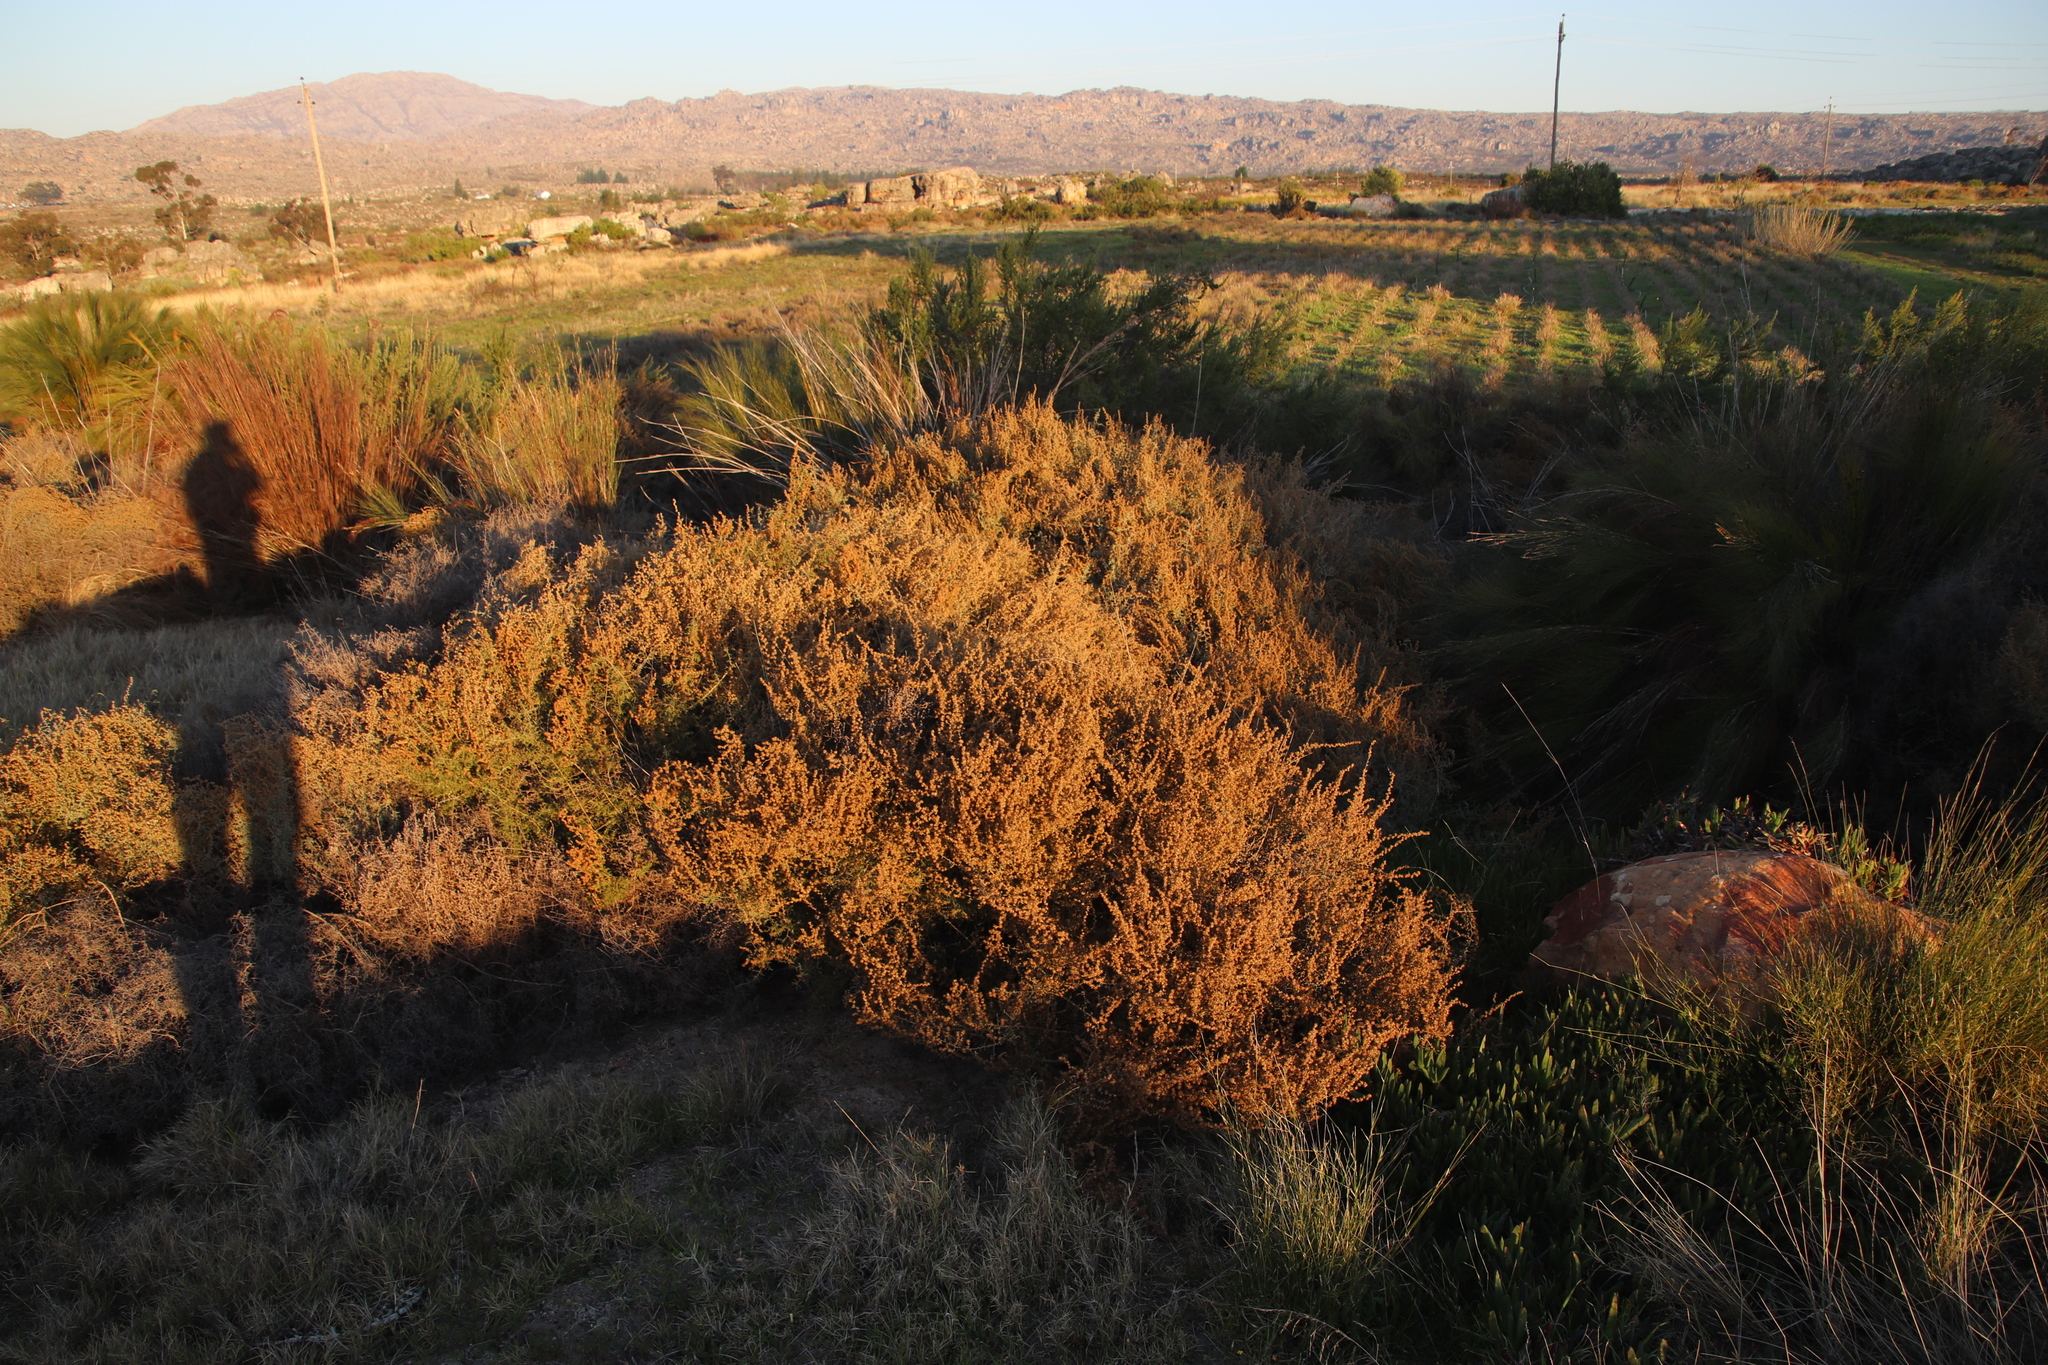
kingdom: Plantae
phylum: Tracheophyta
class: Magnoliopsida
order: Asterales
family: Asteraceae
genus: Seriphium
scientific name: Seriphium plumosum
